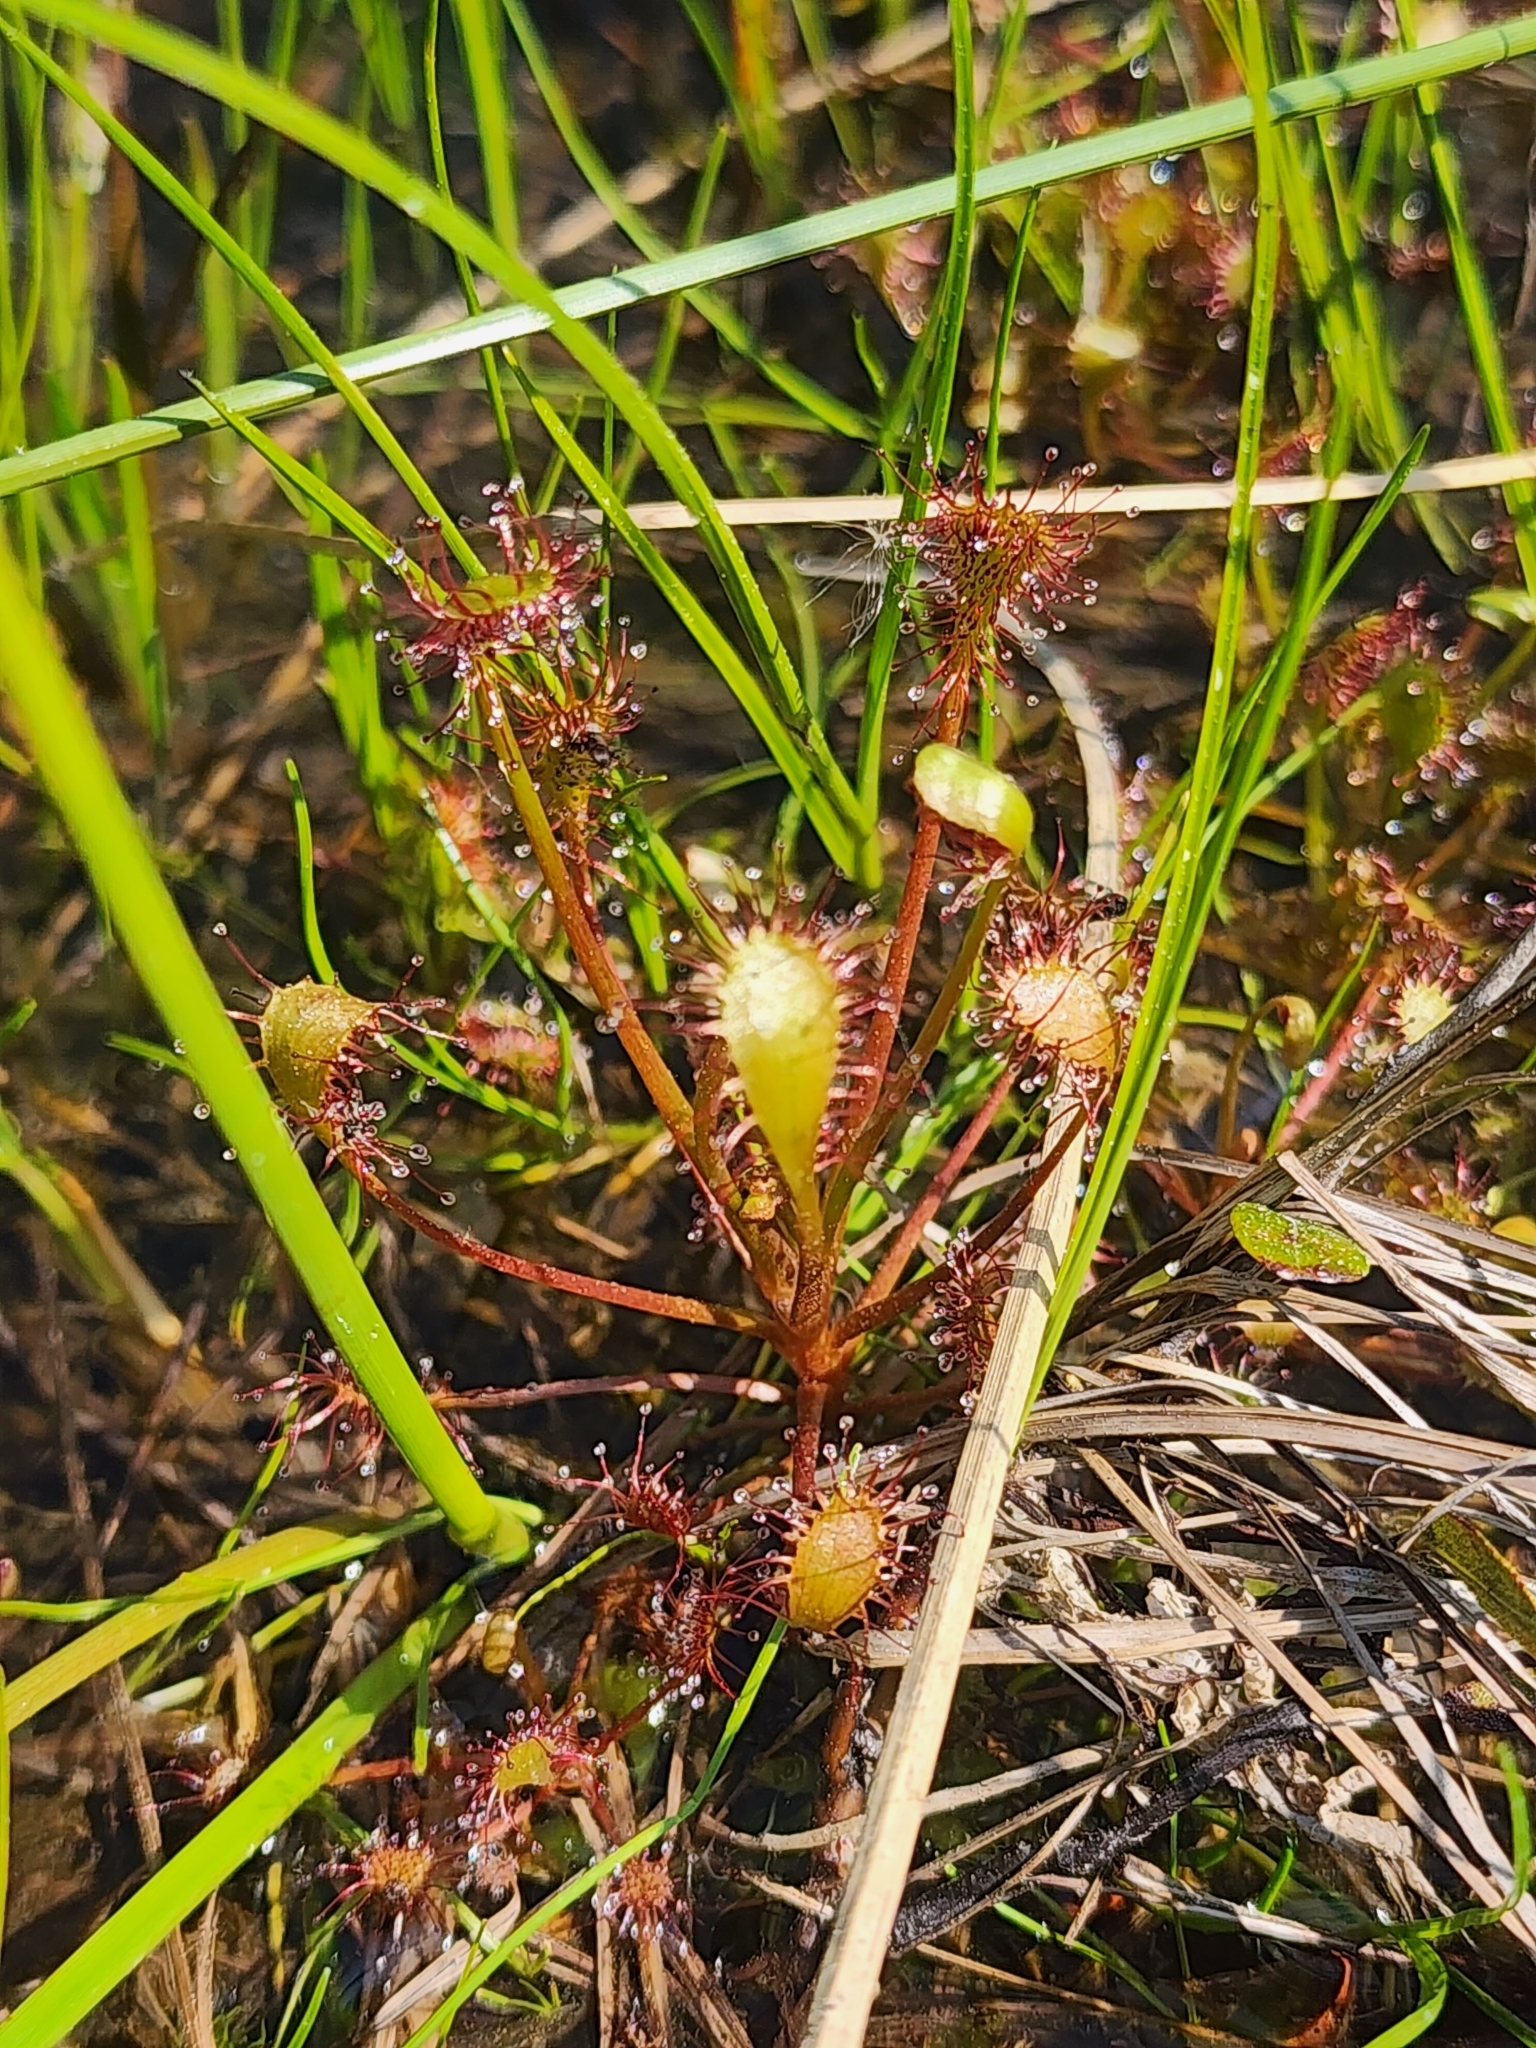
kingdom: Plantae
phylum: Tracheophyta
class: Magnoliopsida
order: Caryophyllales
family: Droseraceae
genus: Drosera
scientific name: Drosera intermedia
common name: Oblong-leaved sundew
